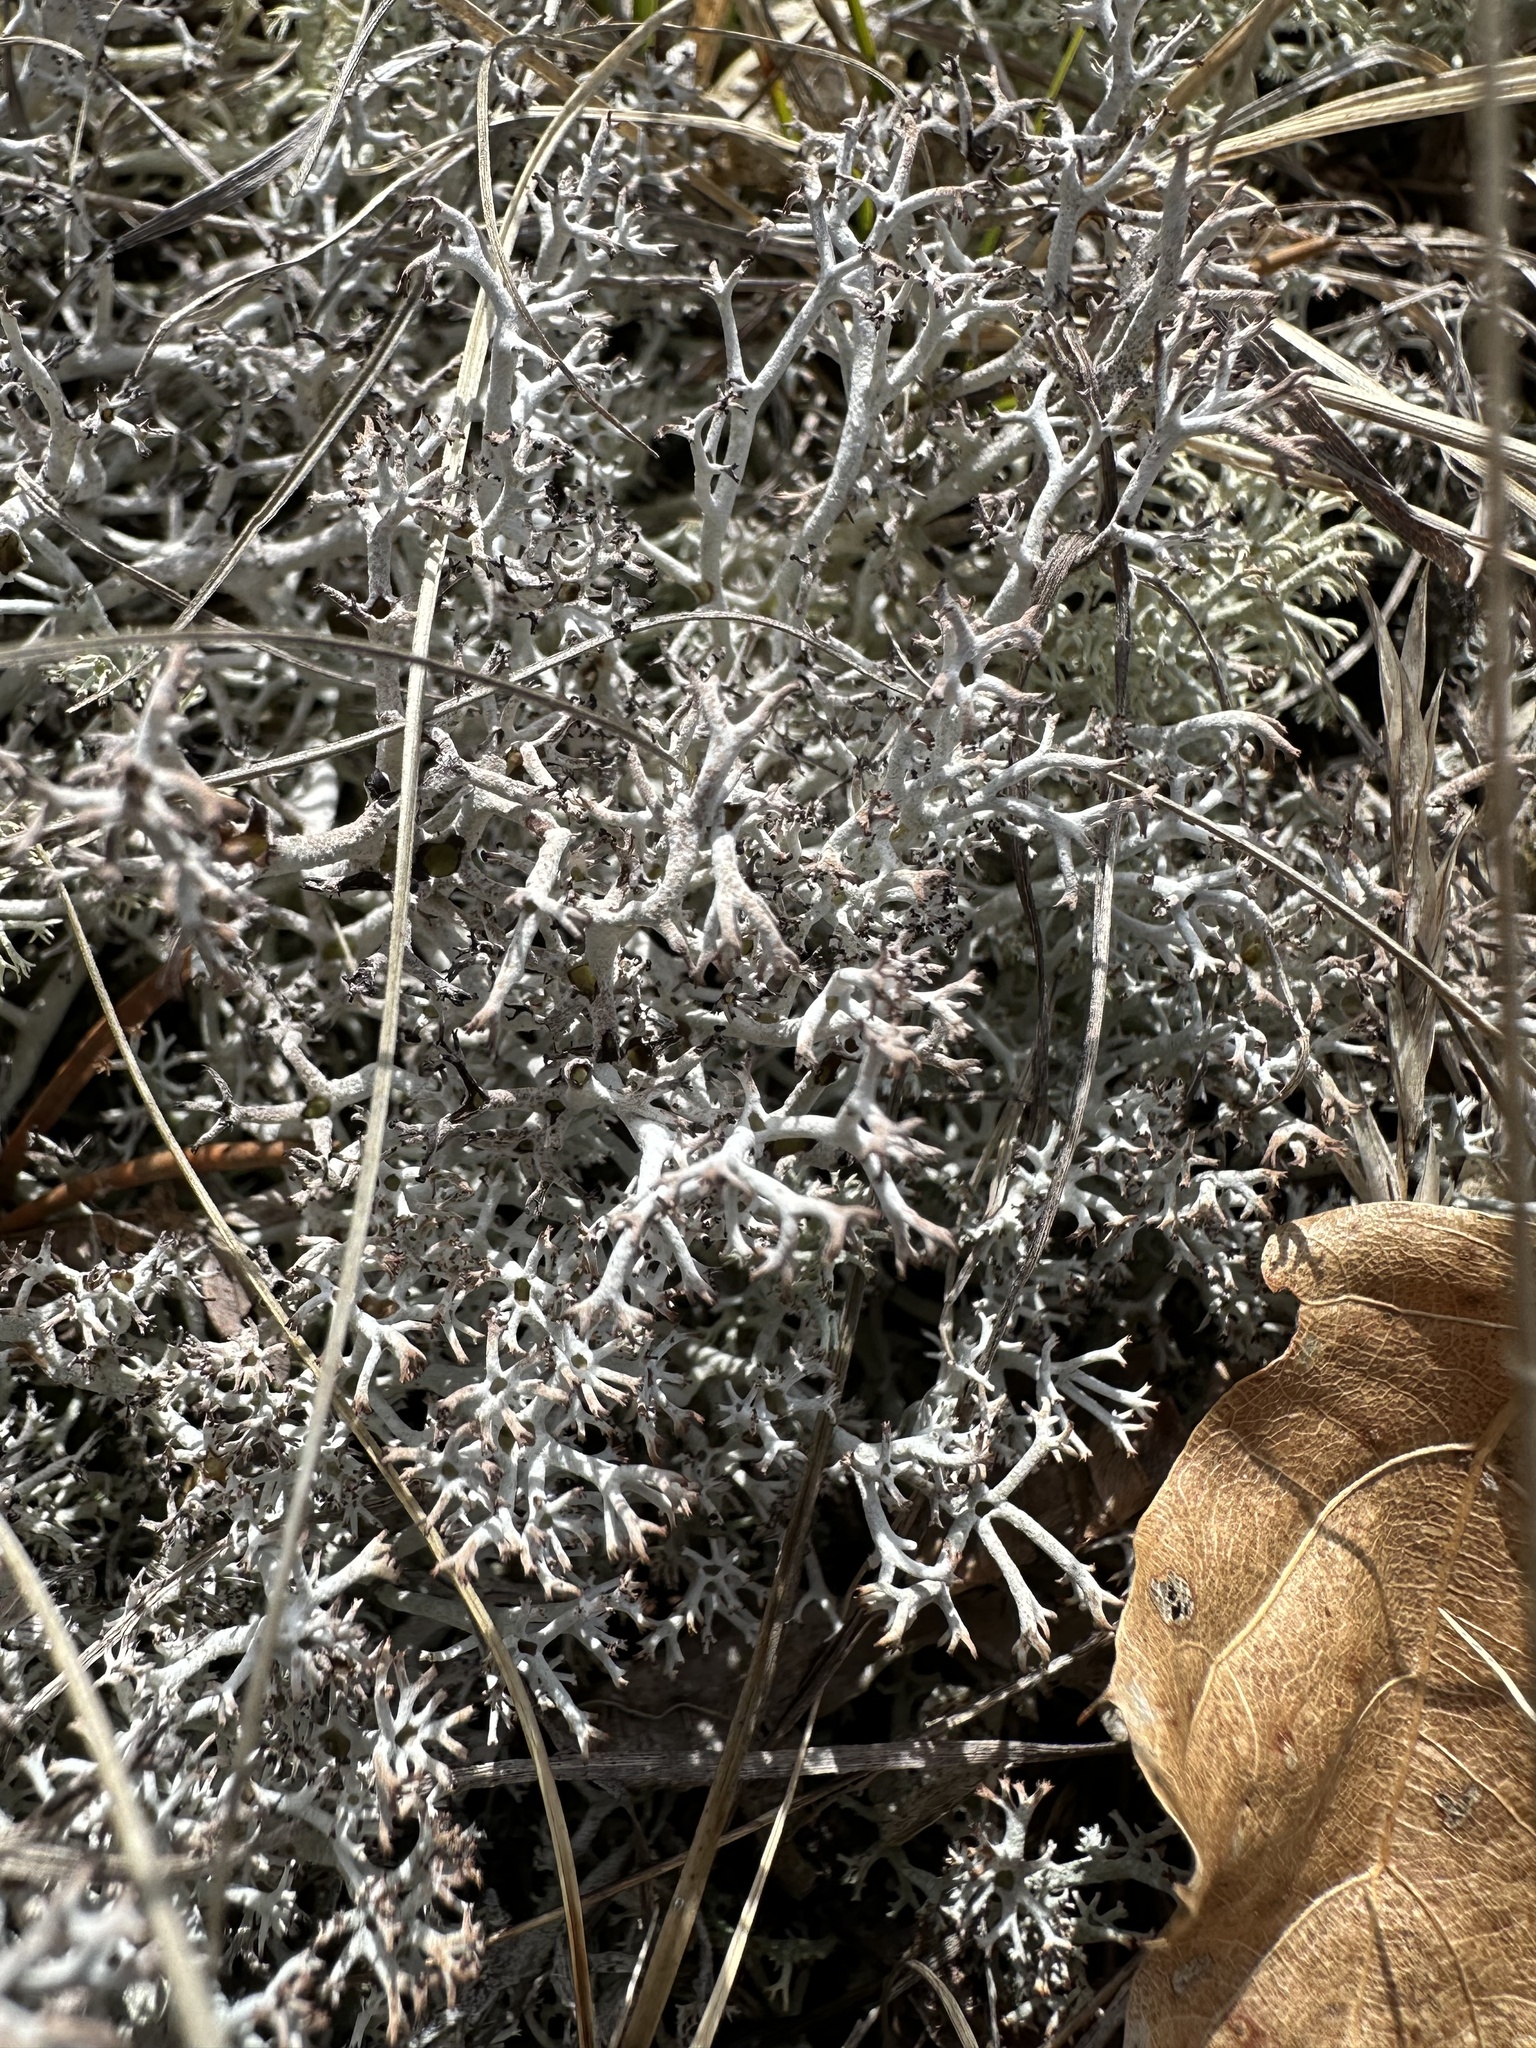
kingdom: Fungi
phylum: Ascomycota
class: Lecanoromycetes
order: Lecanorales
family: Cladoniaceae
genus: Cladonia
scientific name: Cladonia rangiferina
